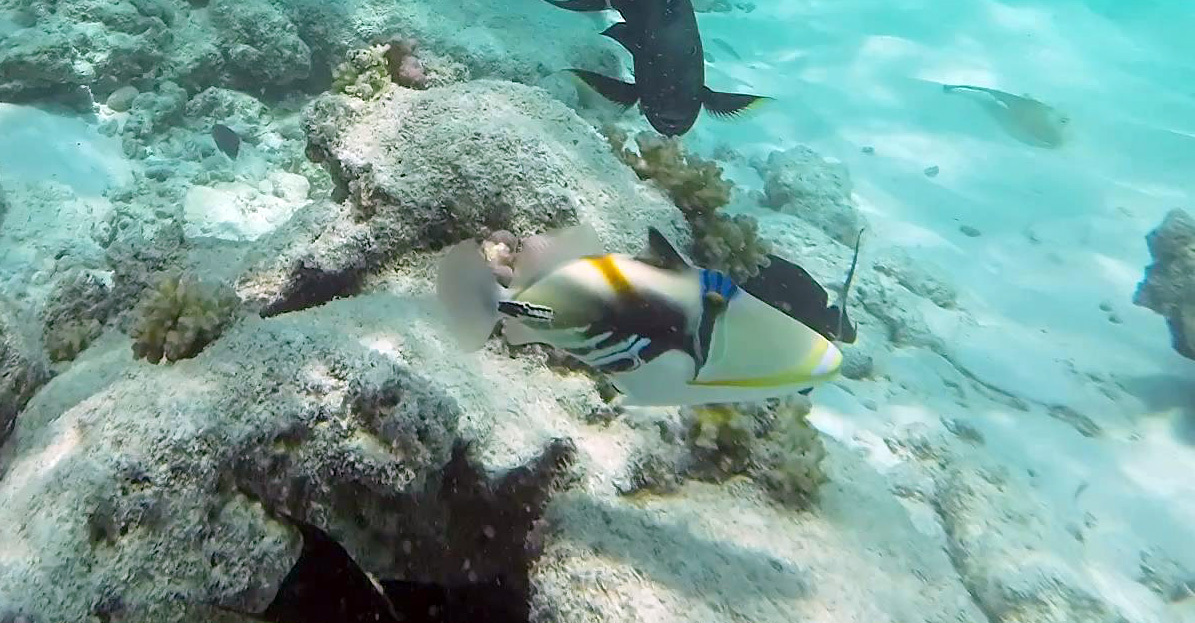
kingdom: Animalia
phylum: Chordata
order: Tetraodontiformes
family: Balistidae
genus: Rhinecanthus
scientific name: Rhinecanthus aculeatus
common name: White-banded triggerfish
